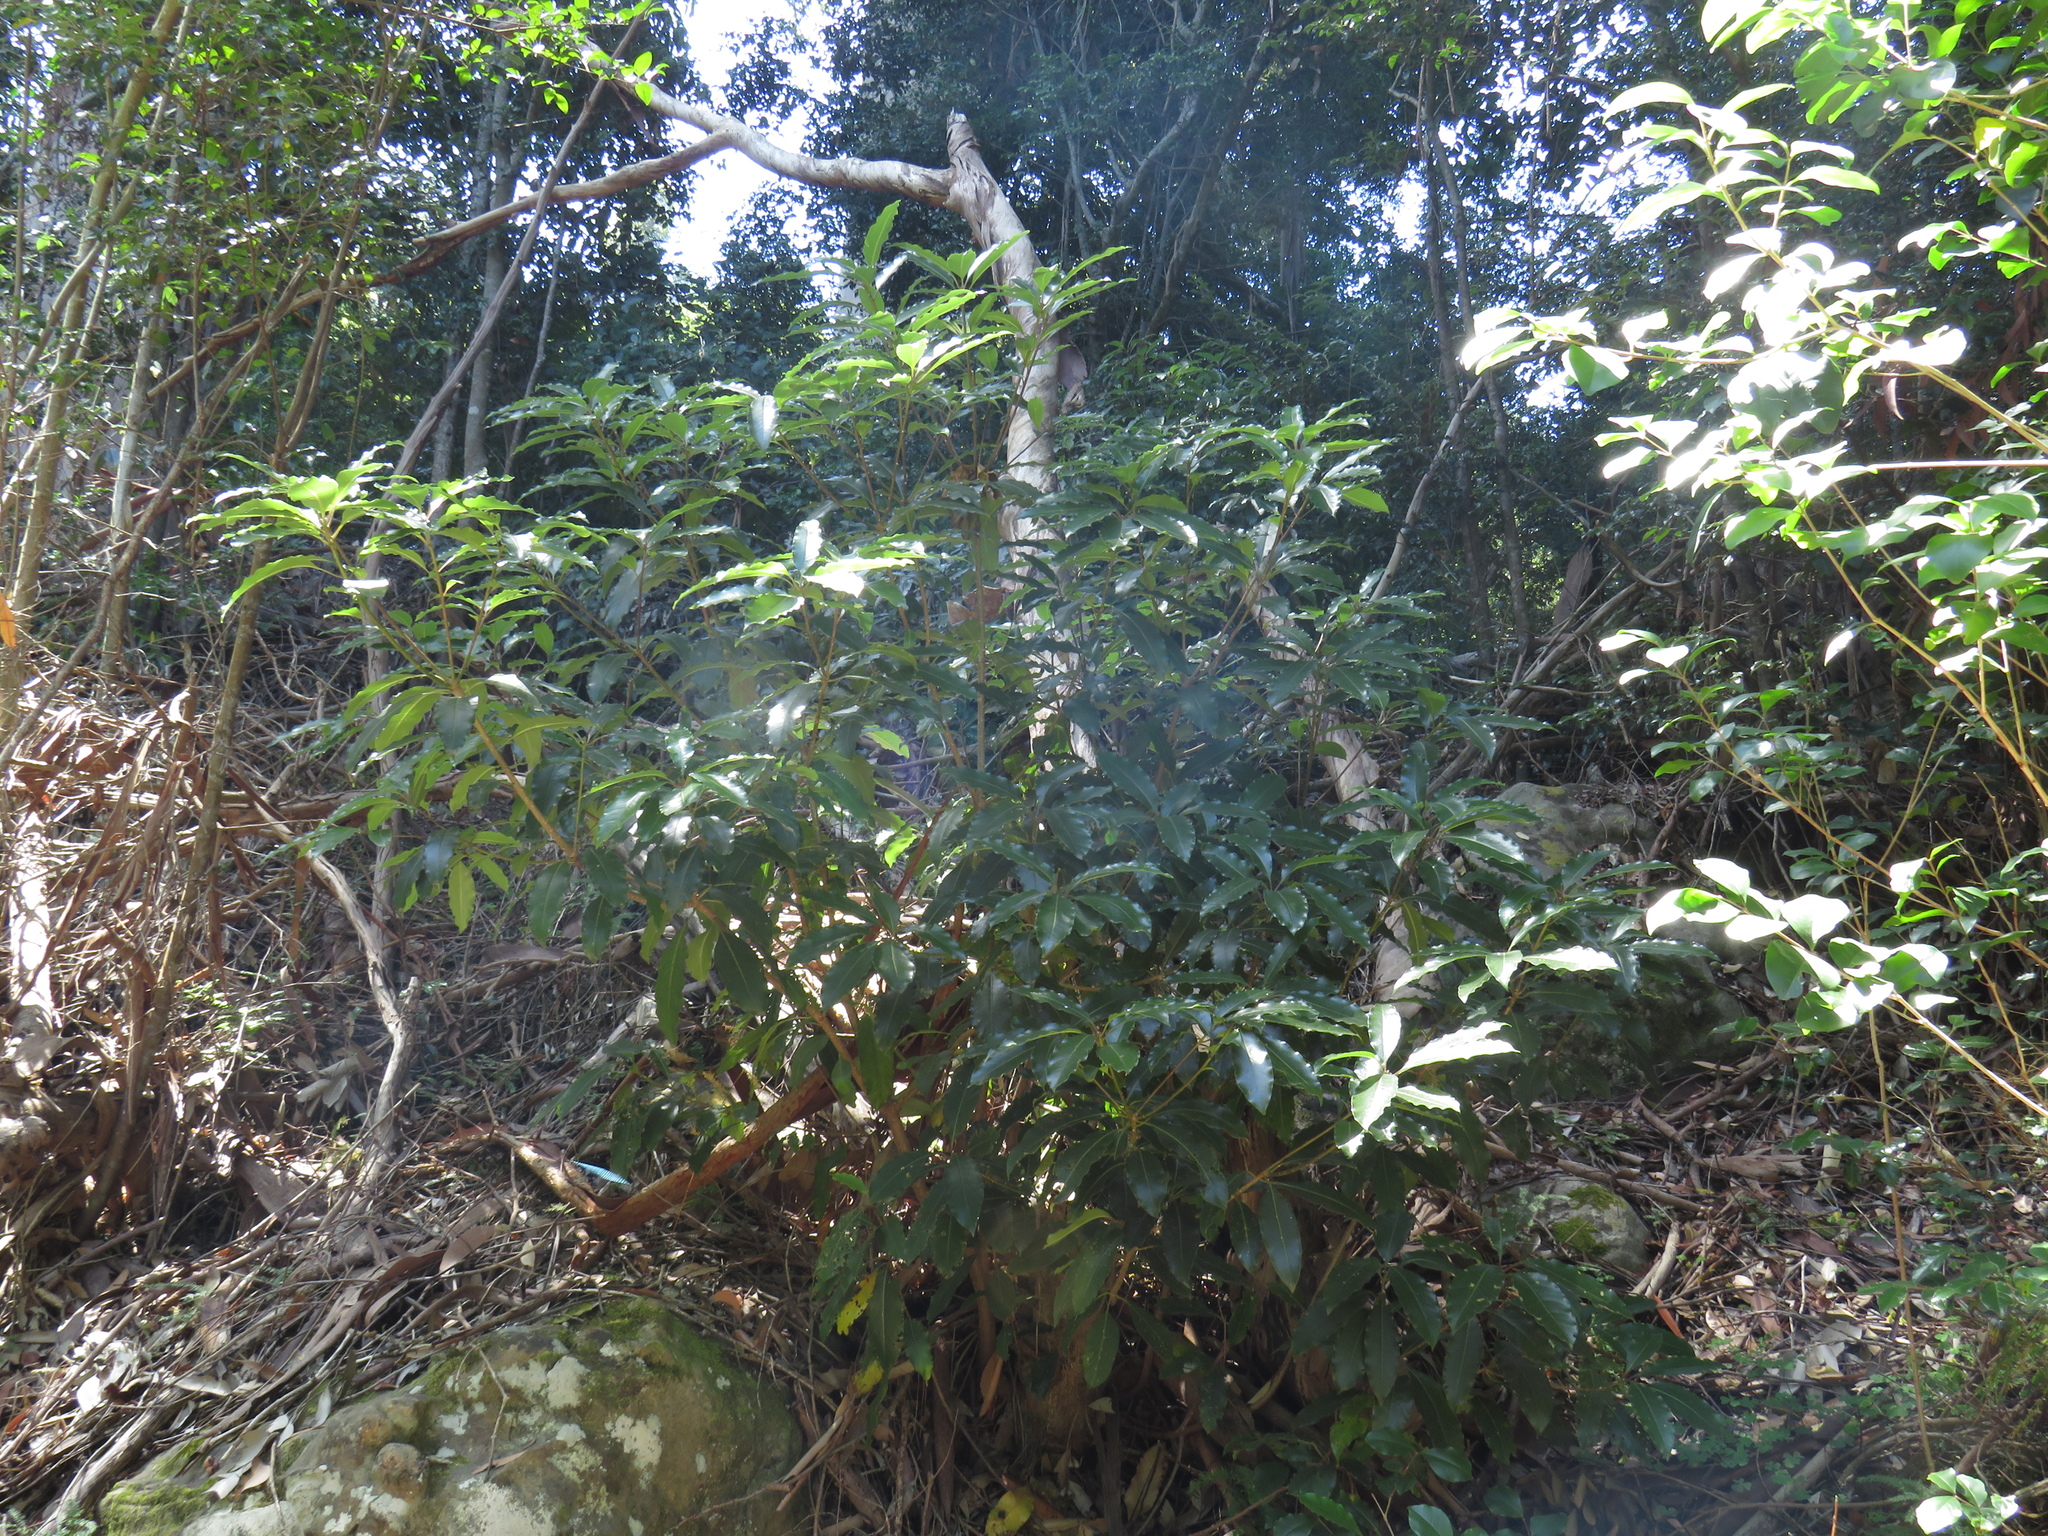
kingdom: Plantae
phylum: Tracheophyta
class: Magnoliopsida
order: Apiales
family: Pittosporaceae
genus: Pittosporum
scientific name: Pittosporum undulatum
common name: Australian cheesewood
